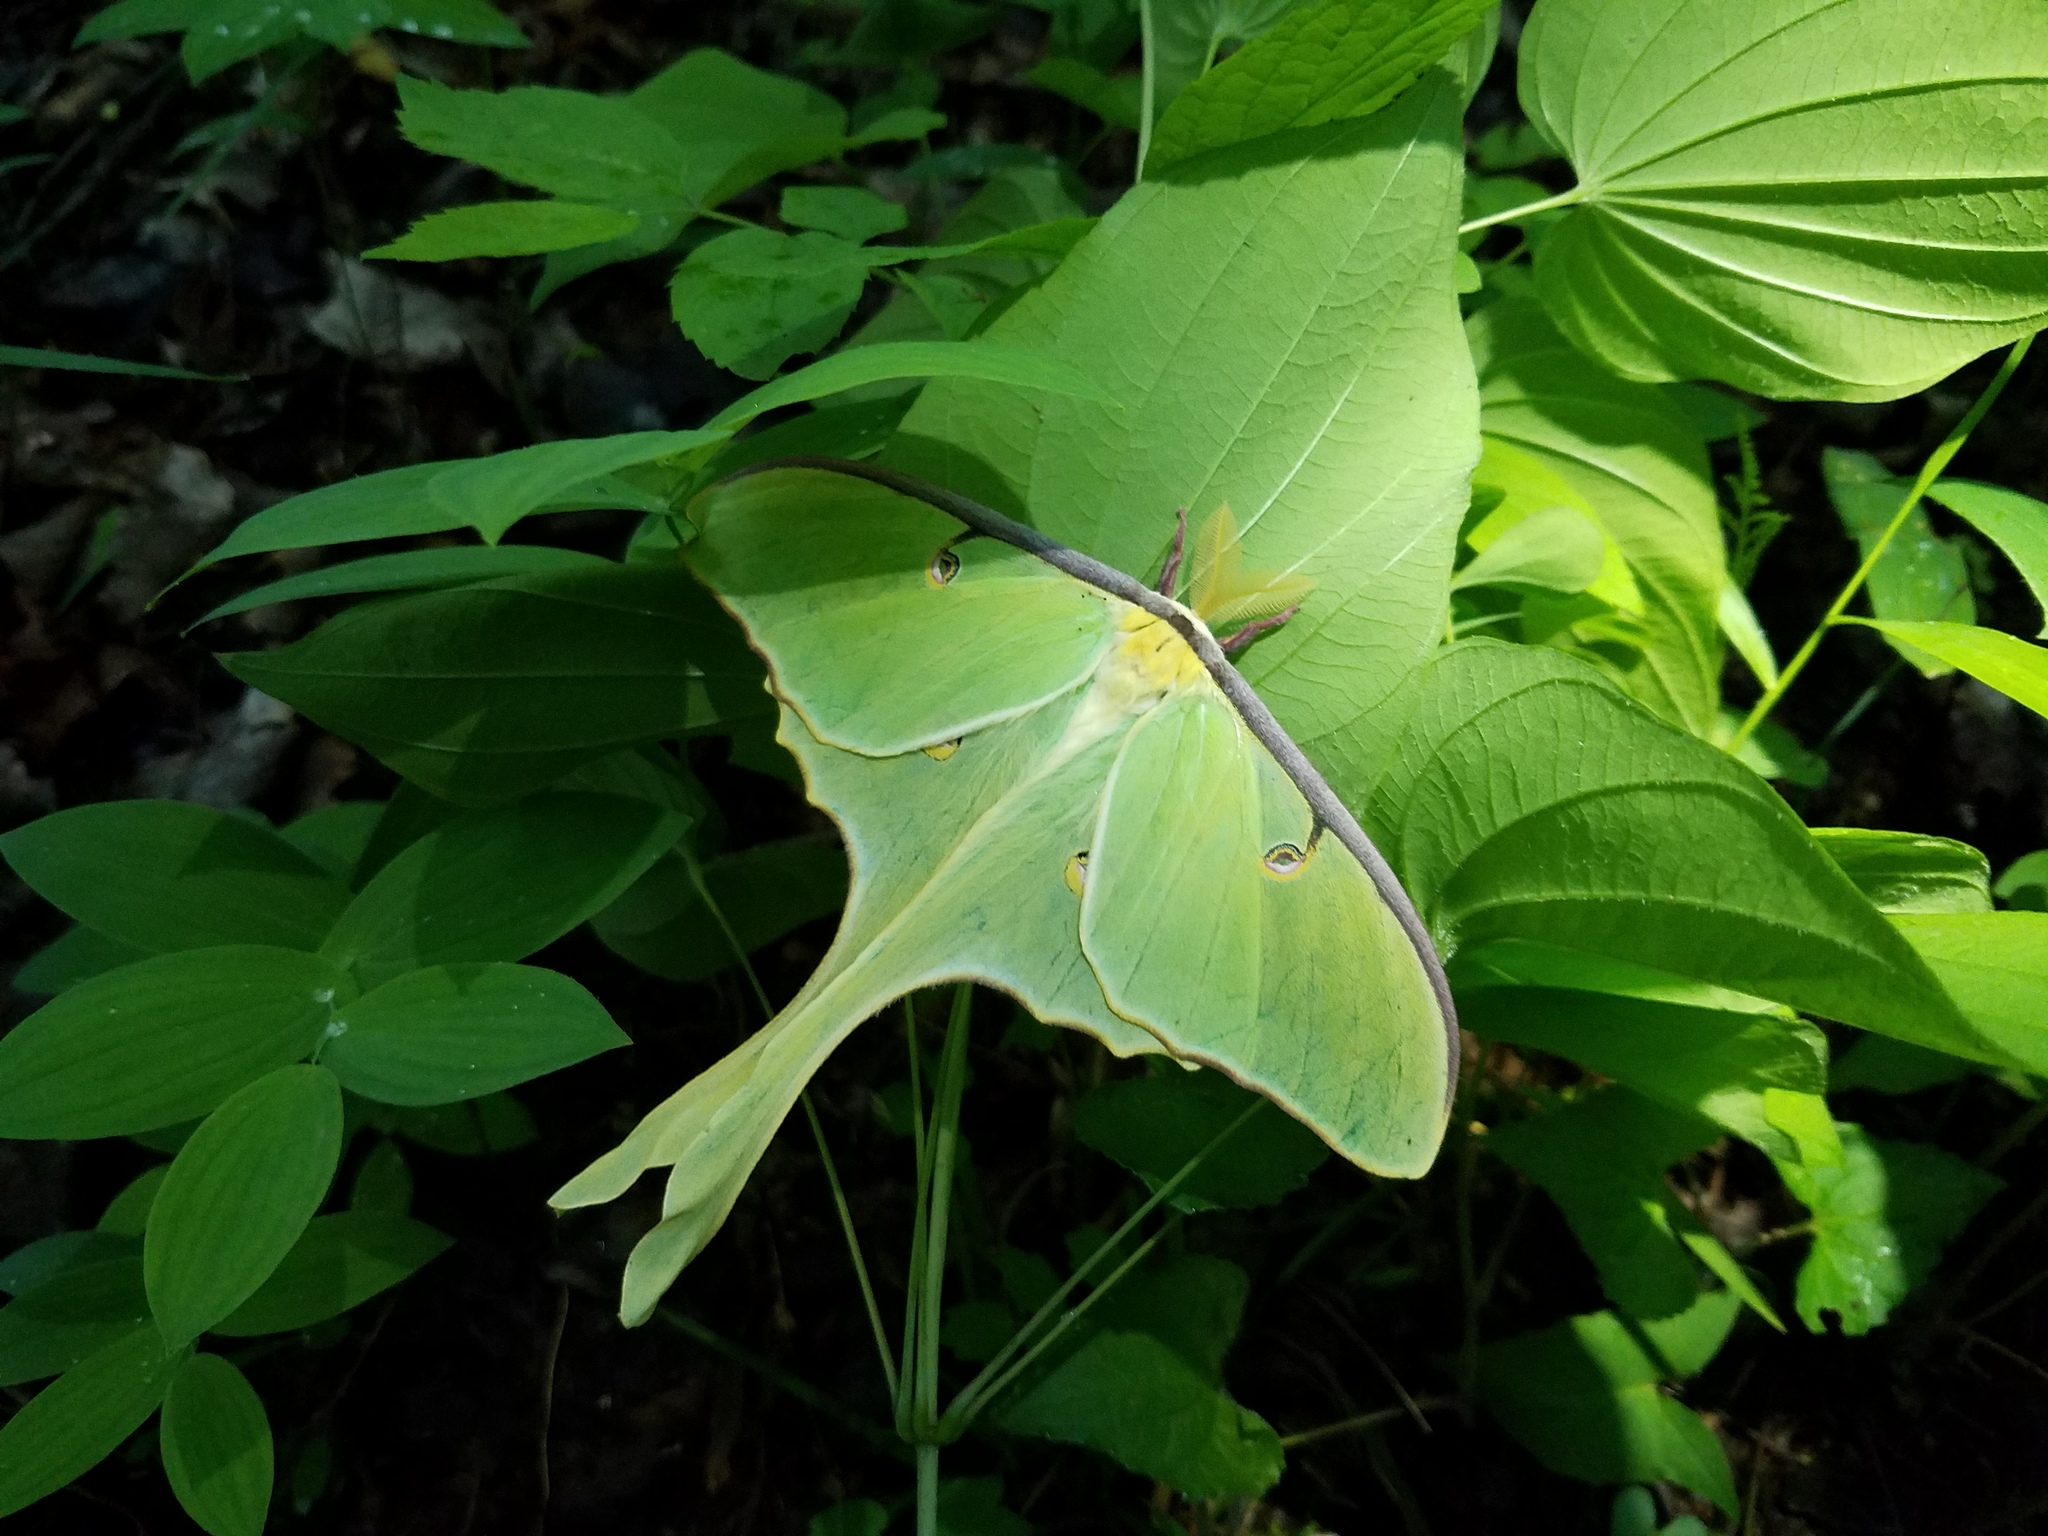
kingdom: Animalia
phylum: Arthropoda
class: Insecta
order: Lepidoptera
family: Saturniidae
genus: Actias
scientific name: Actias luna
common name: Luna moth
